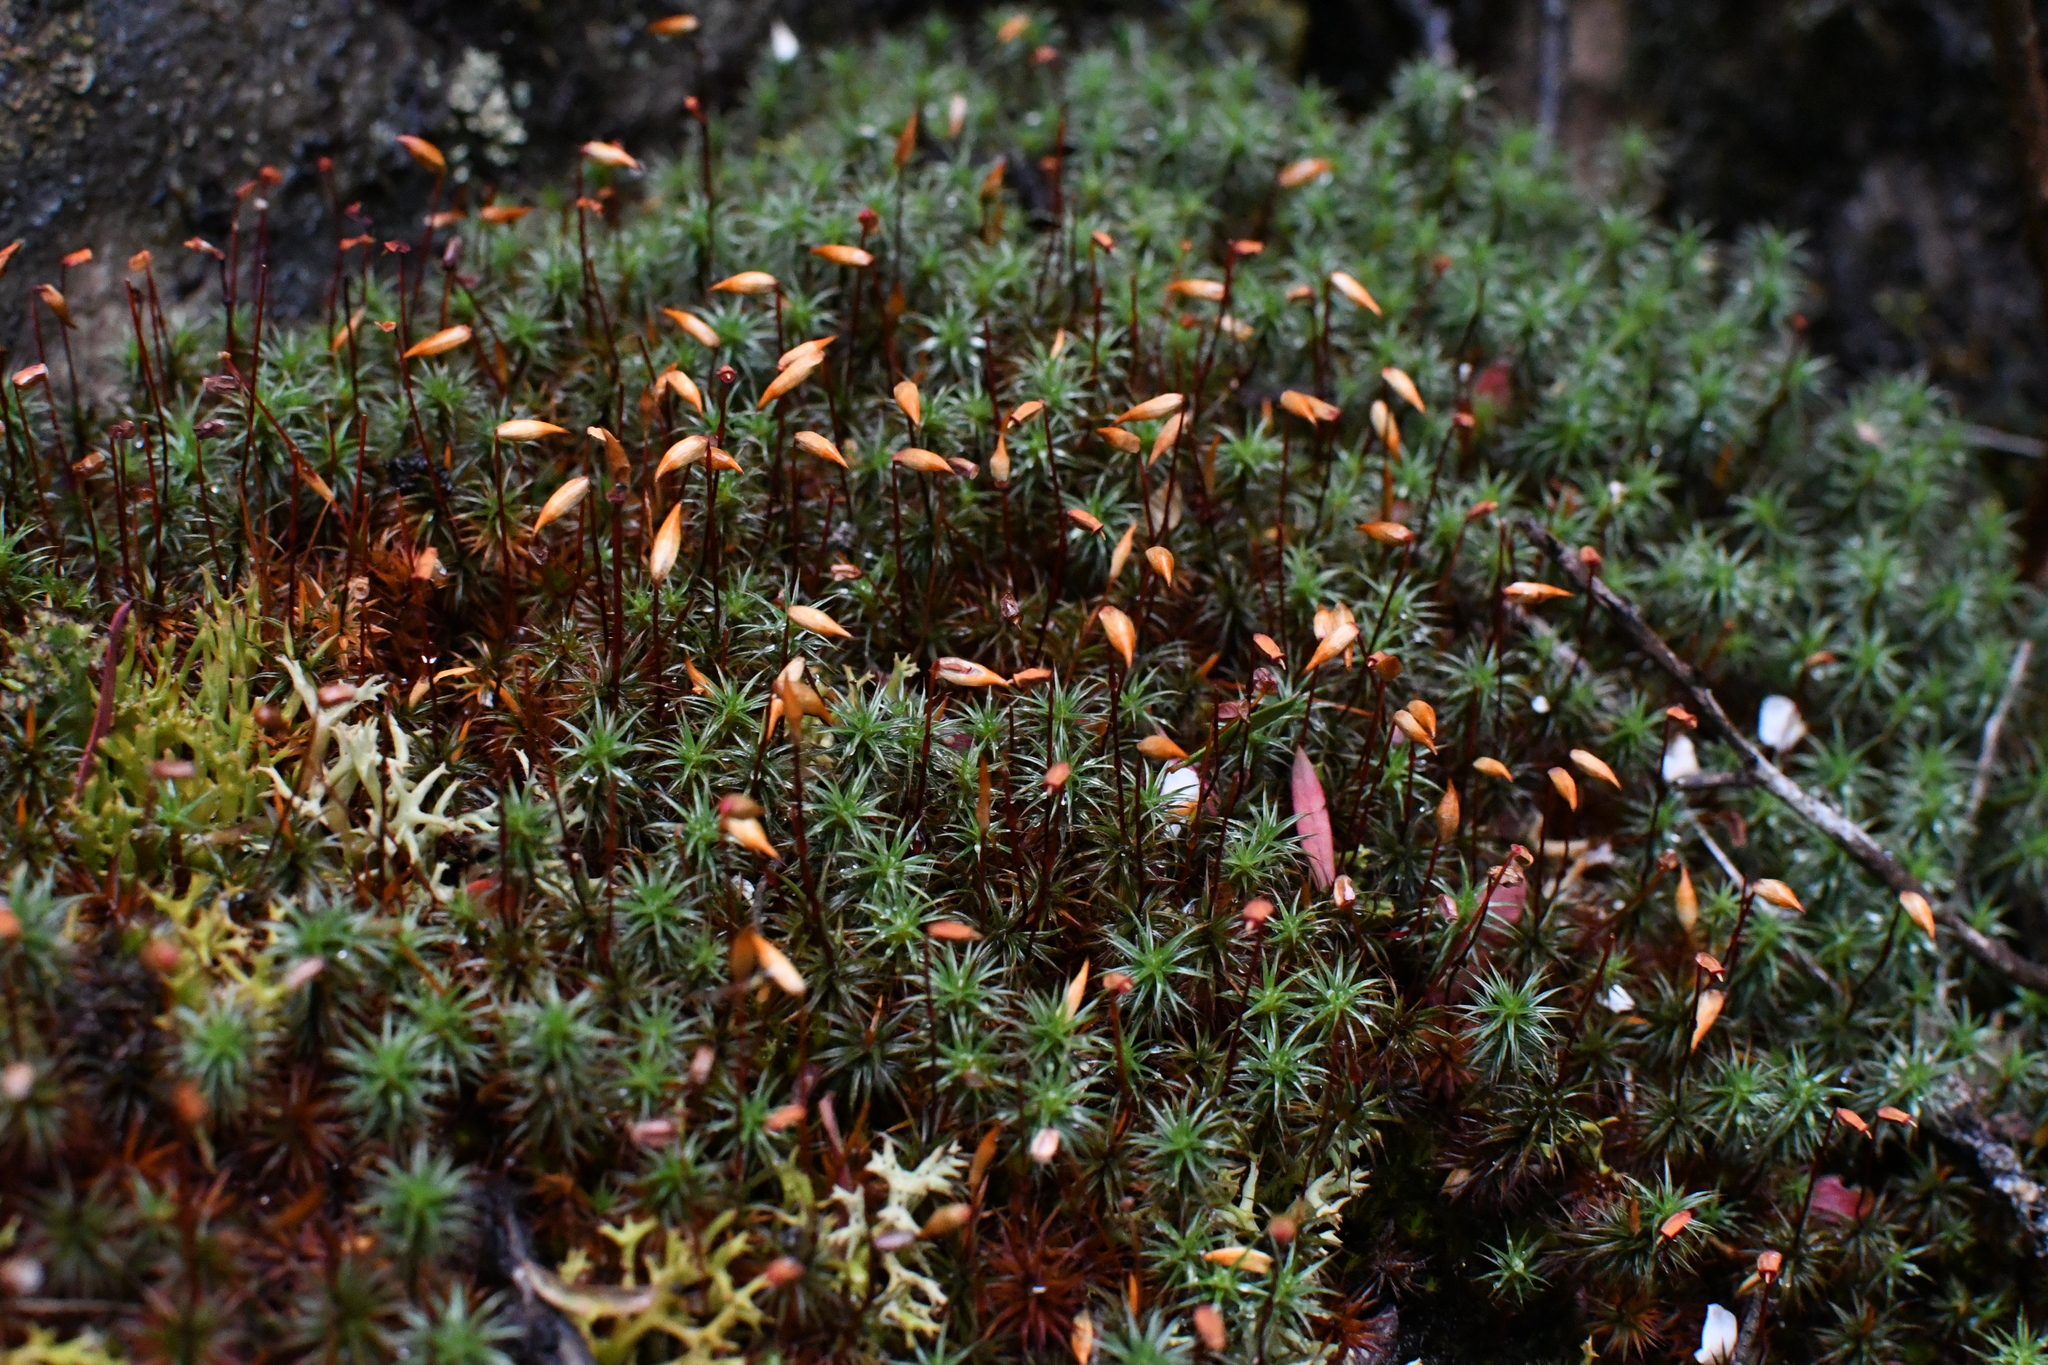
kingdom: Plantae
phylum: Bryophyta
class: Polytrichopsida
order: Polytrichales
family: Polytrichaceae
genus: Polytrichum
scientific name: Polytrichum juniperinum
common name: Juniper haircap moss
